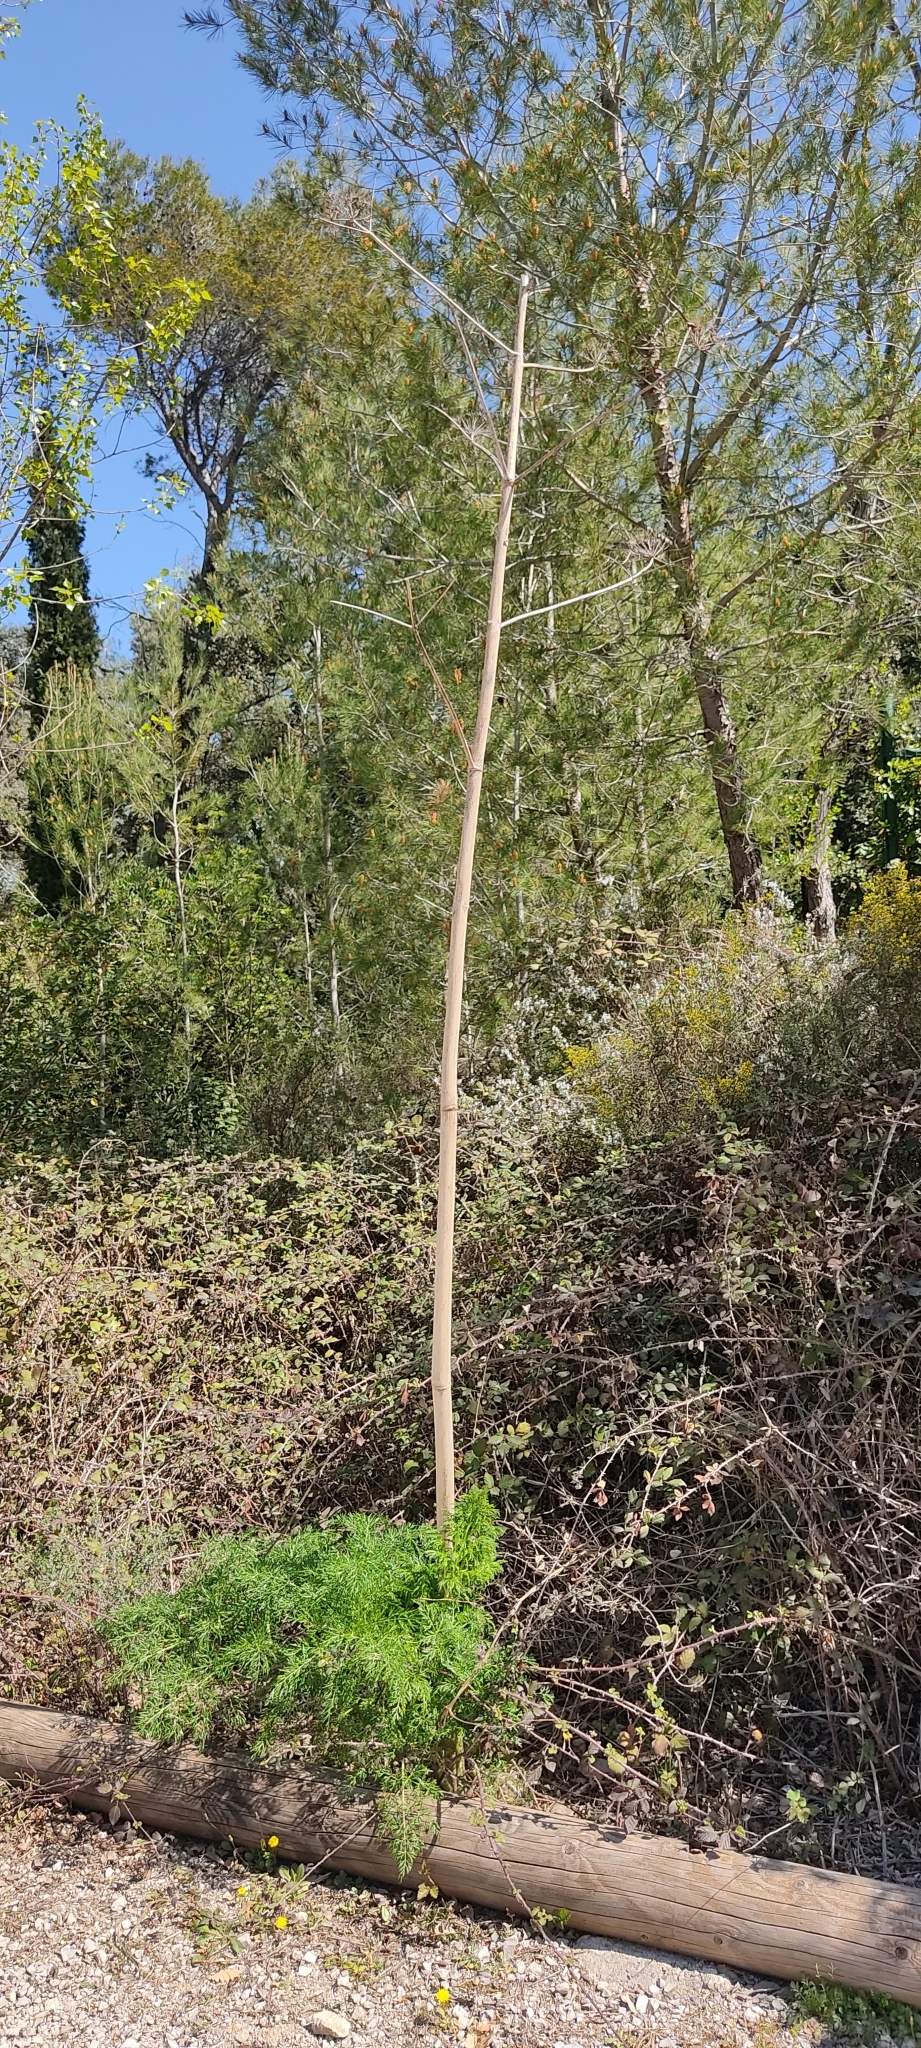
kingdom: Plantae
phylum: Tracheophyta
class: Magnoliopsida
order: Apiales
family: Apiaceae
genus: Ferula
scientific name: Ferula glauca
